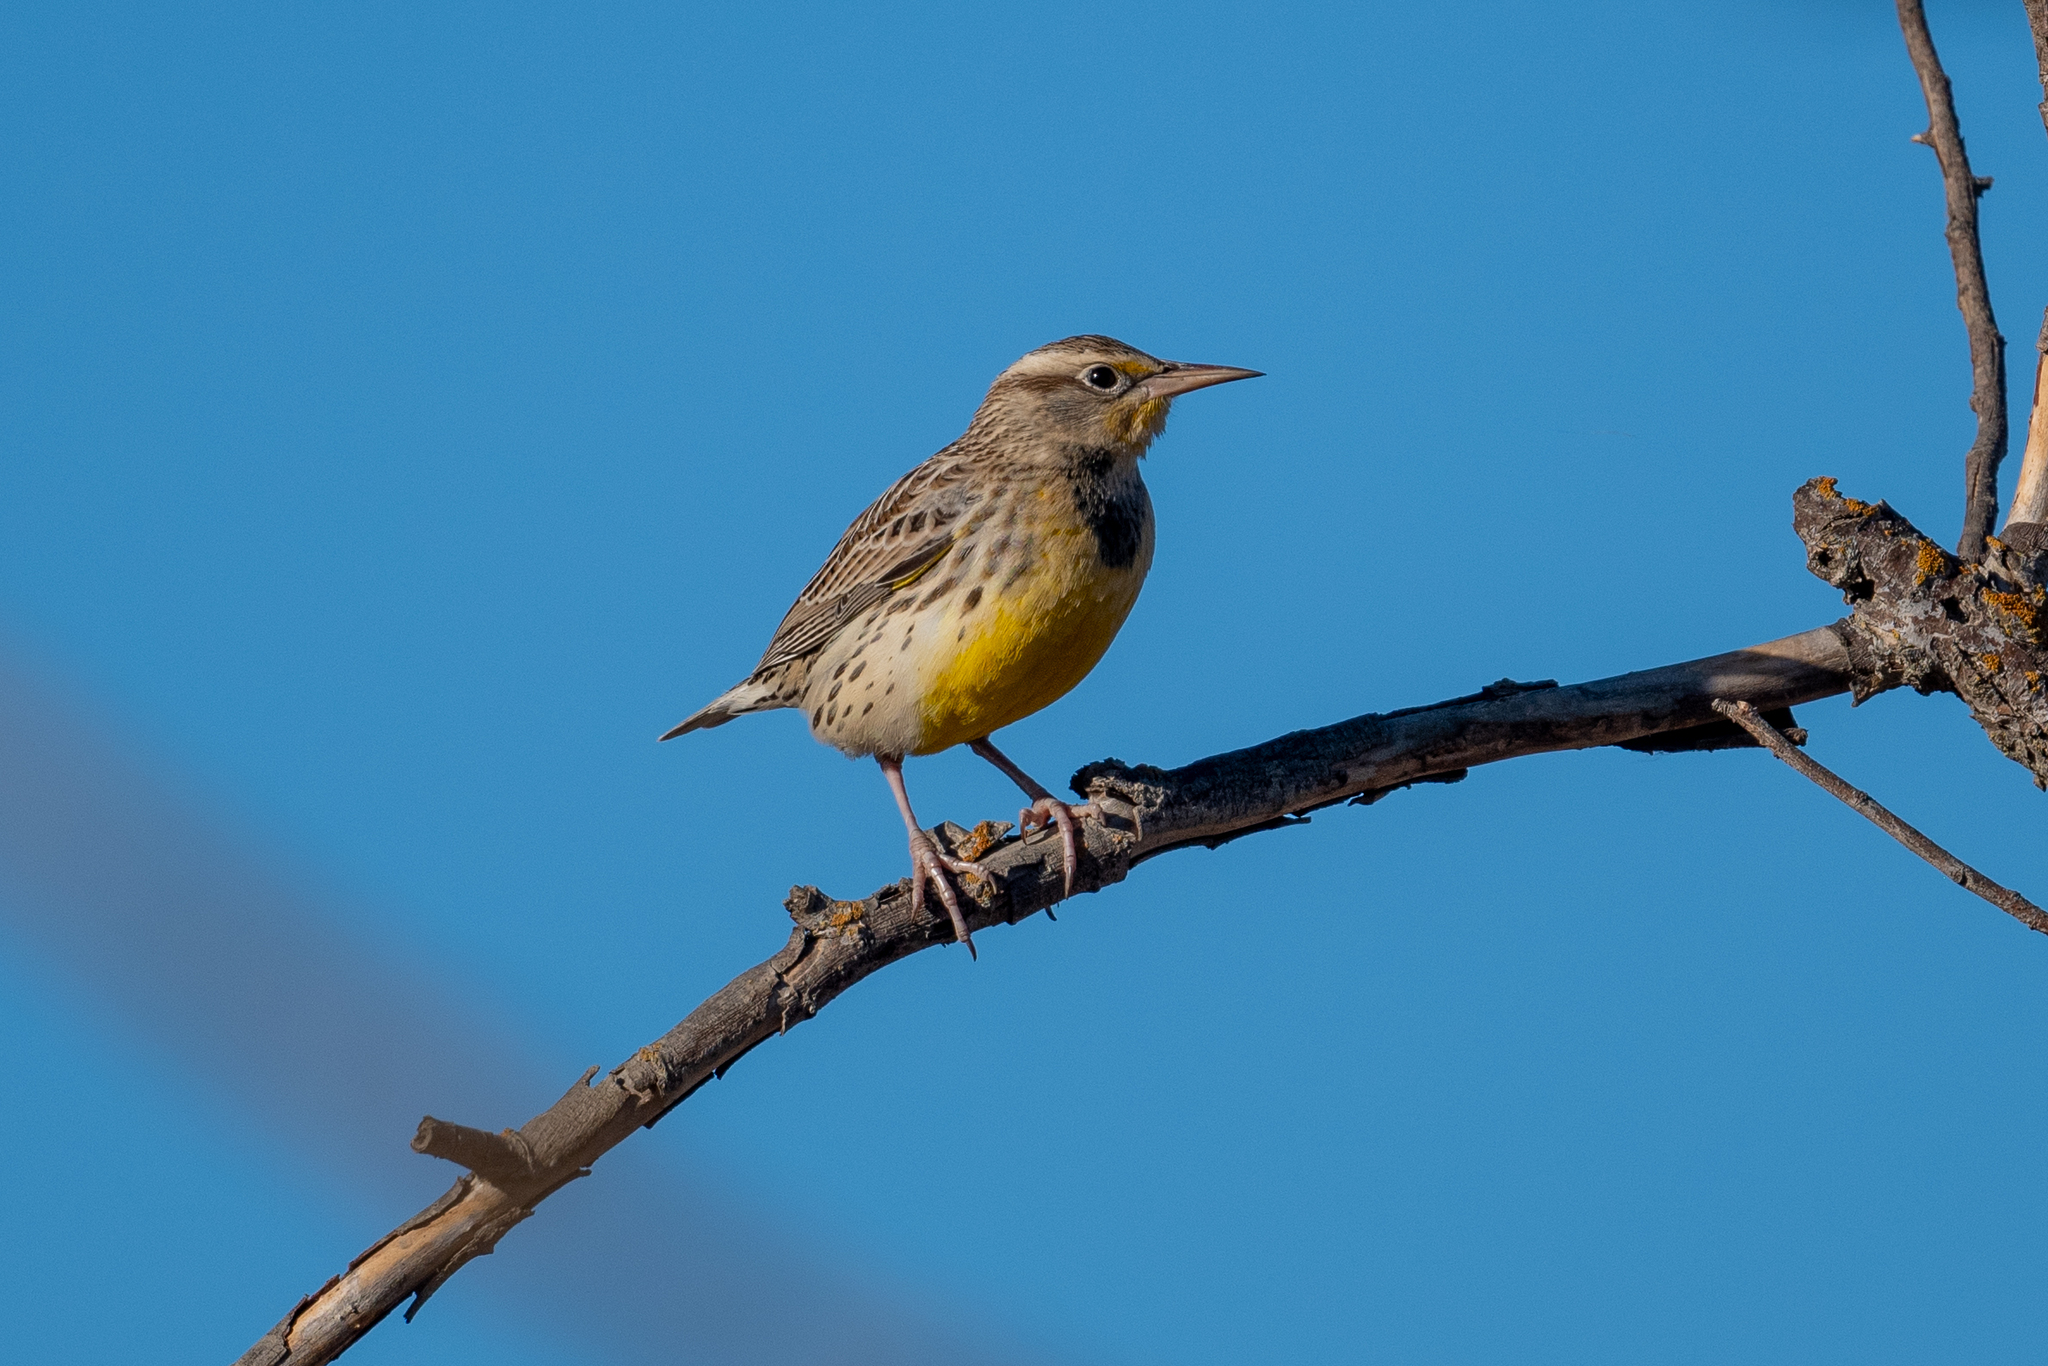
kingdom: Animalia
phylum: Chordata
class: Aves
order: Passeriformes
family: Icteridae
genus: Sturnella
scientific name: Sturnella neglecta
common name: Western meadowlark
